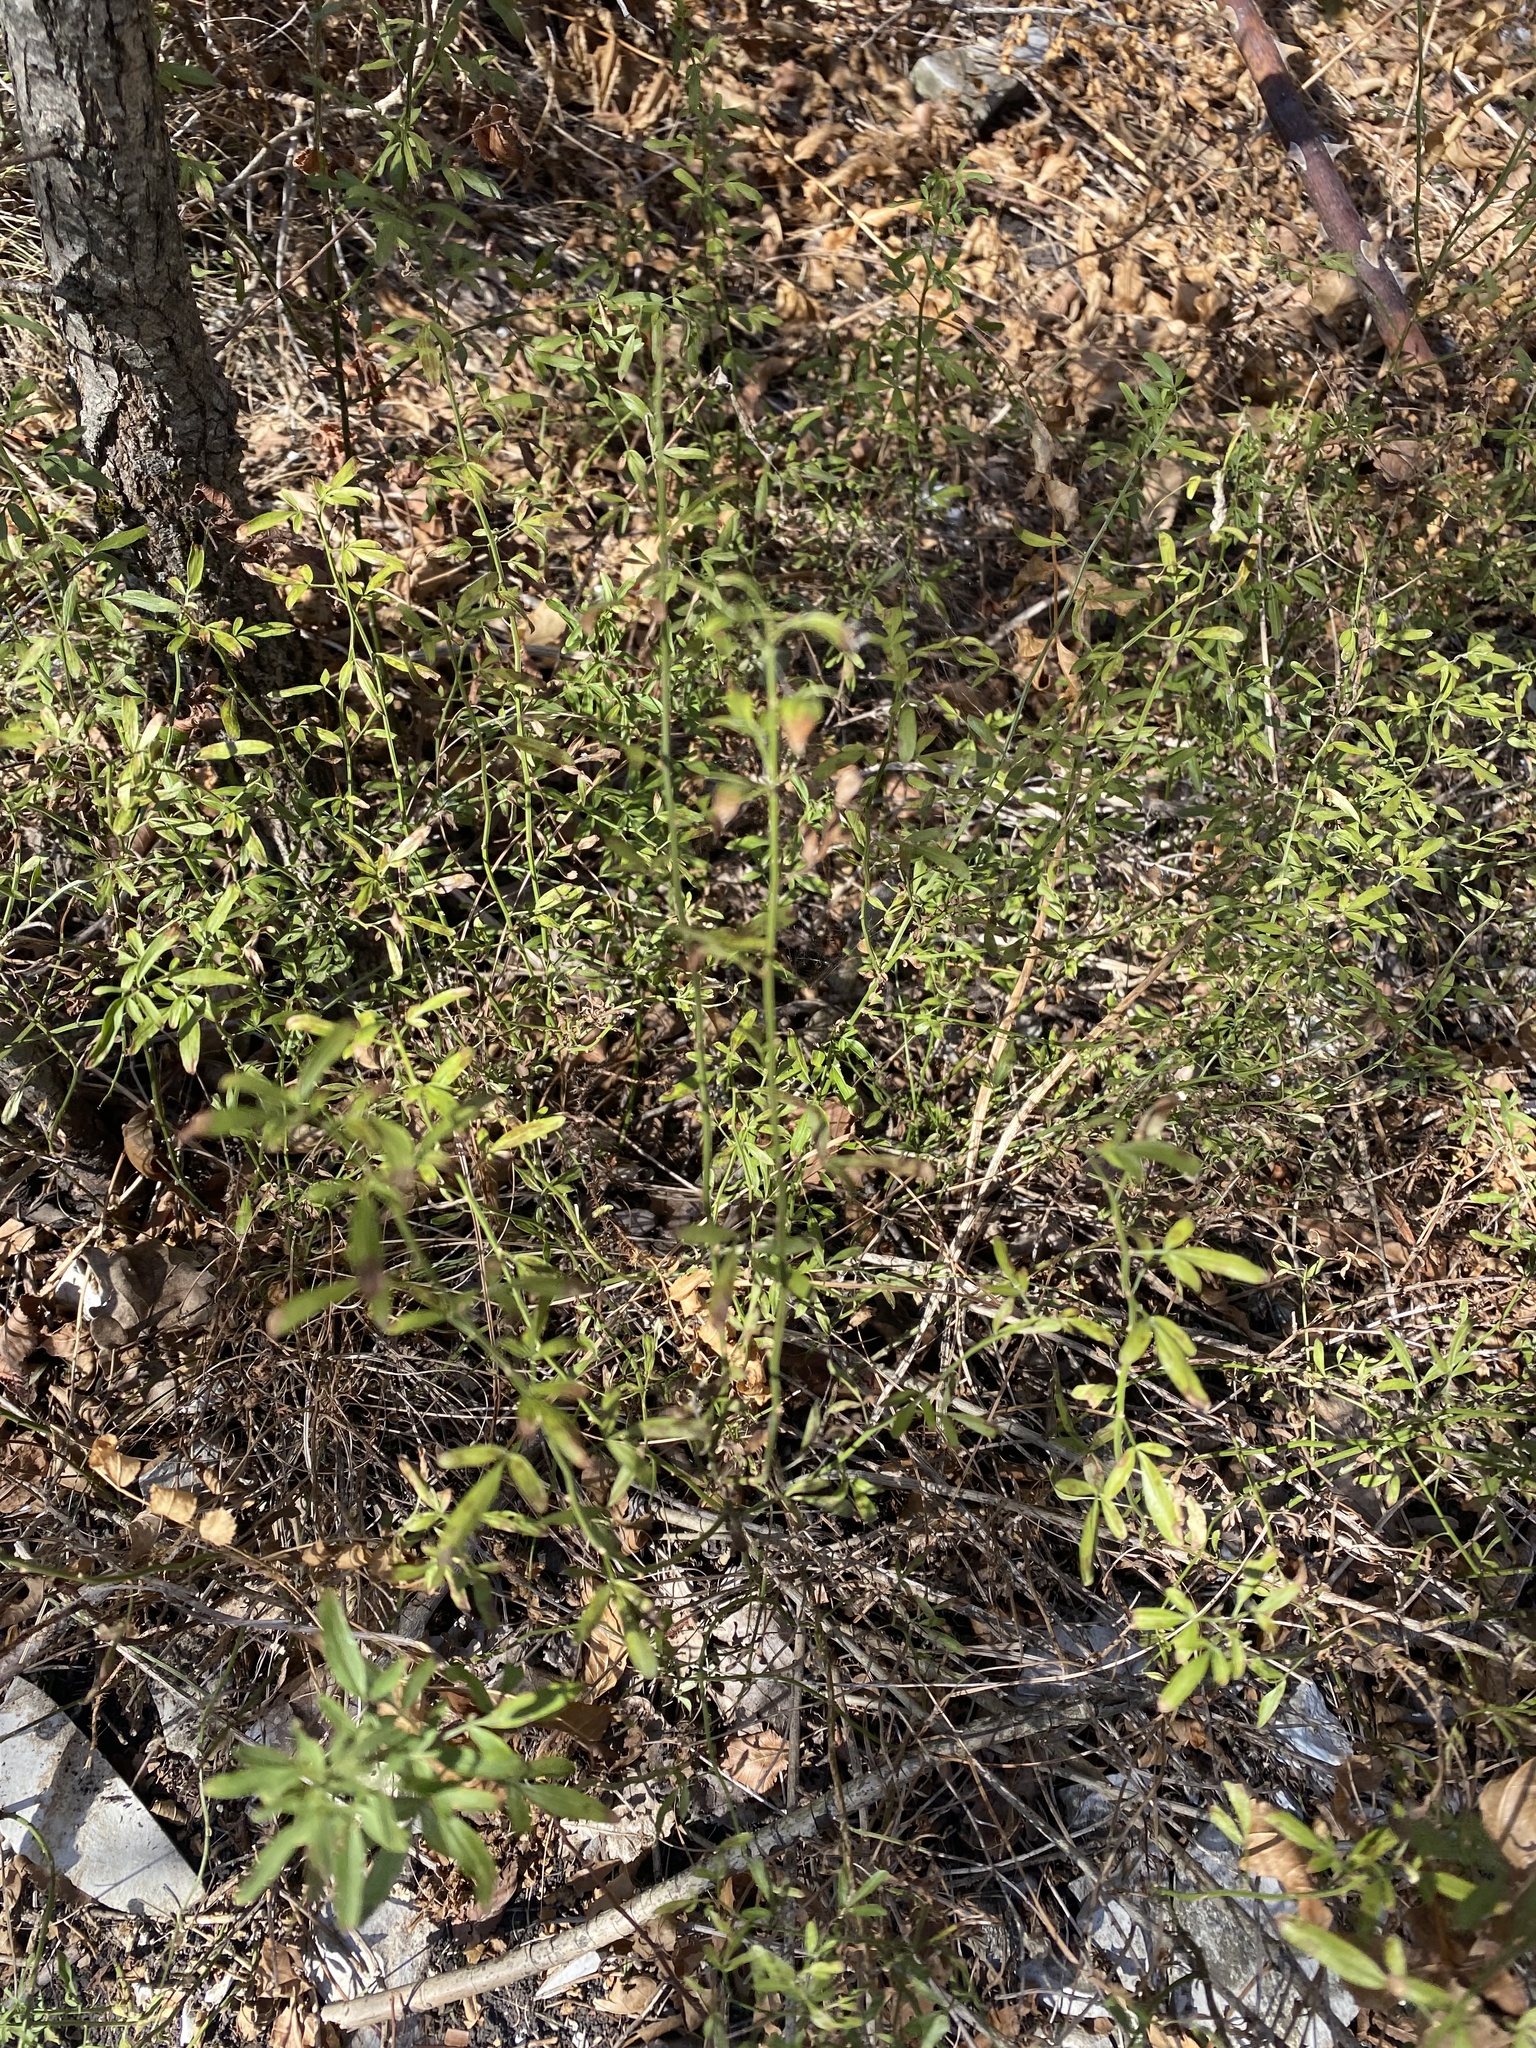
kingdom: Plantae
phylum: Tracheophyta
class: Magnoliopsida
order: Lamiales
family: Oleaceae
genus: Chrysojasminum
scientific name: Chrysojasminum fruticans
